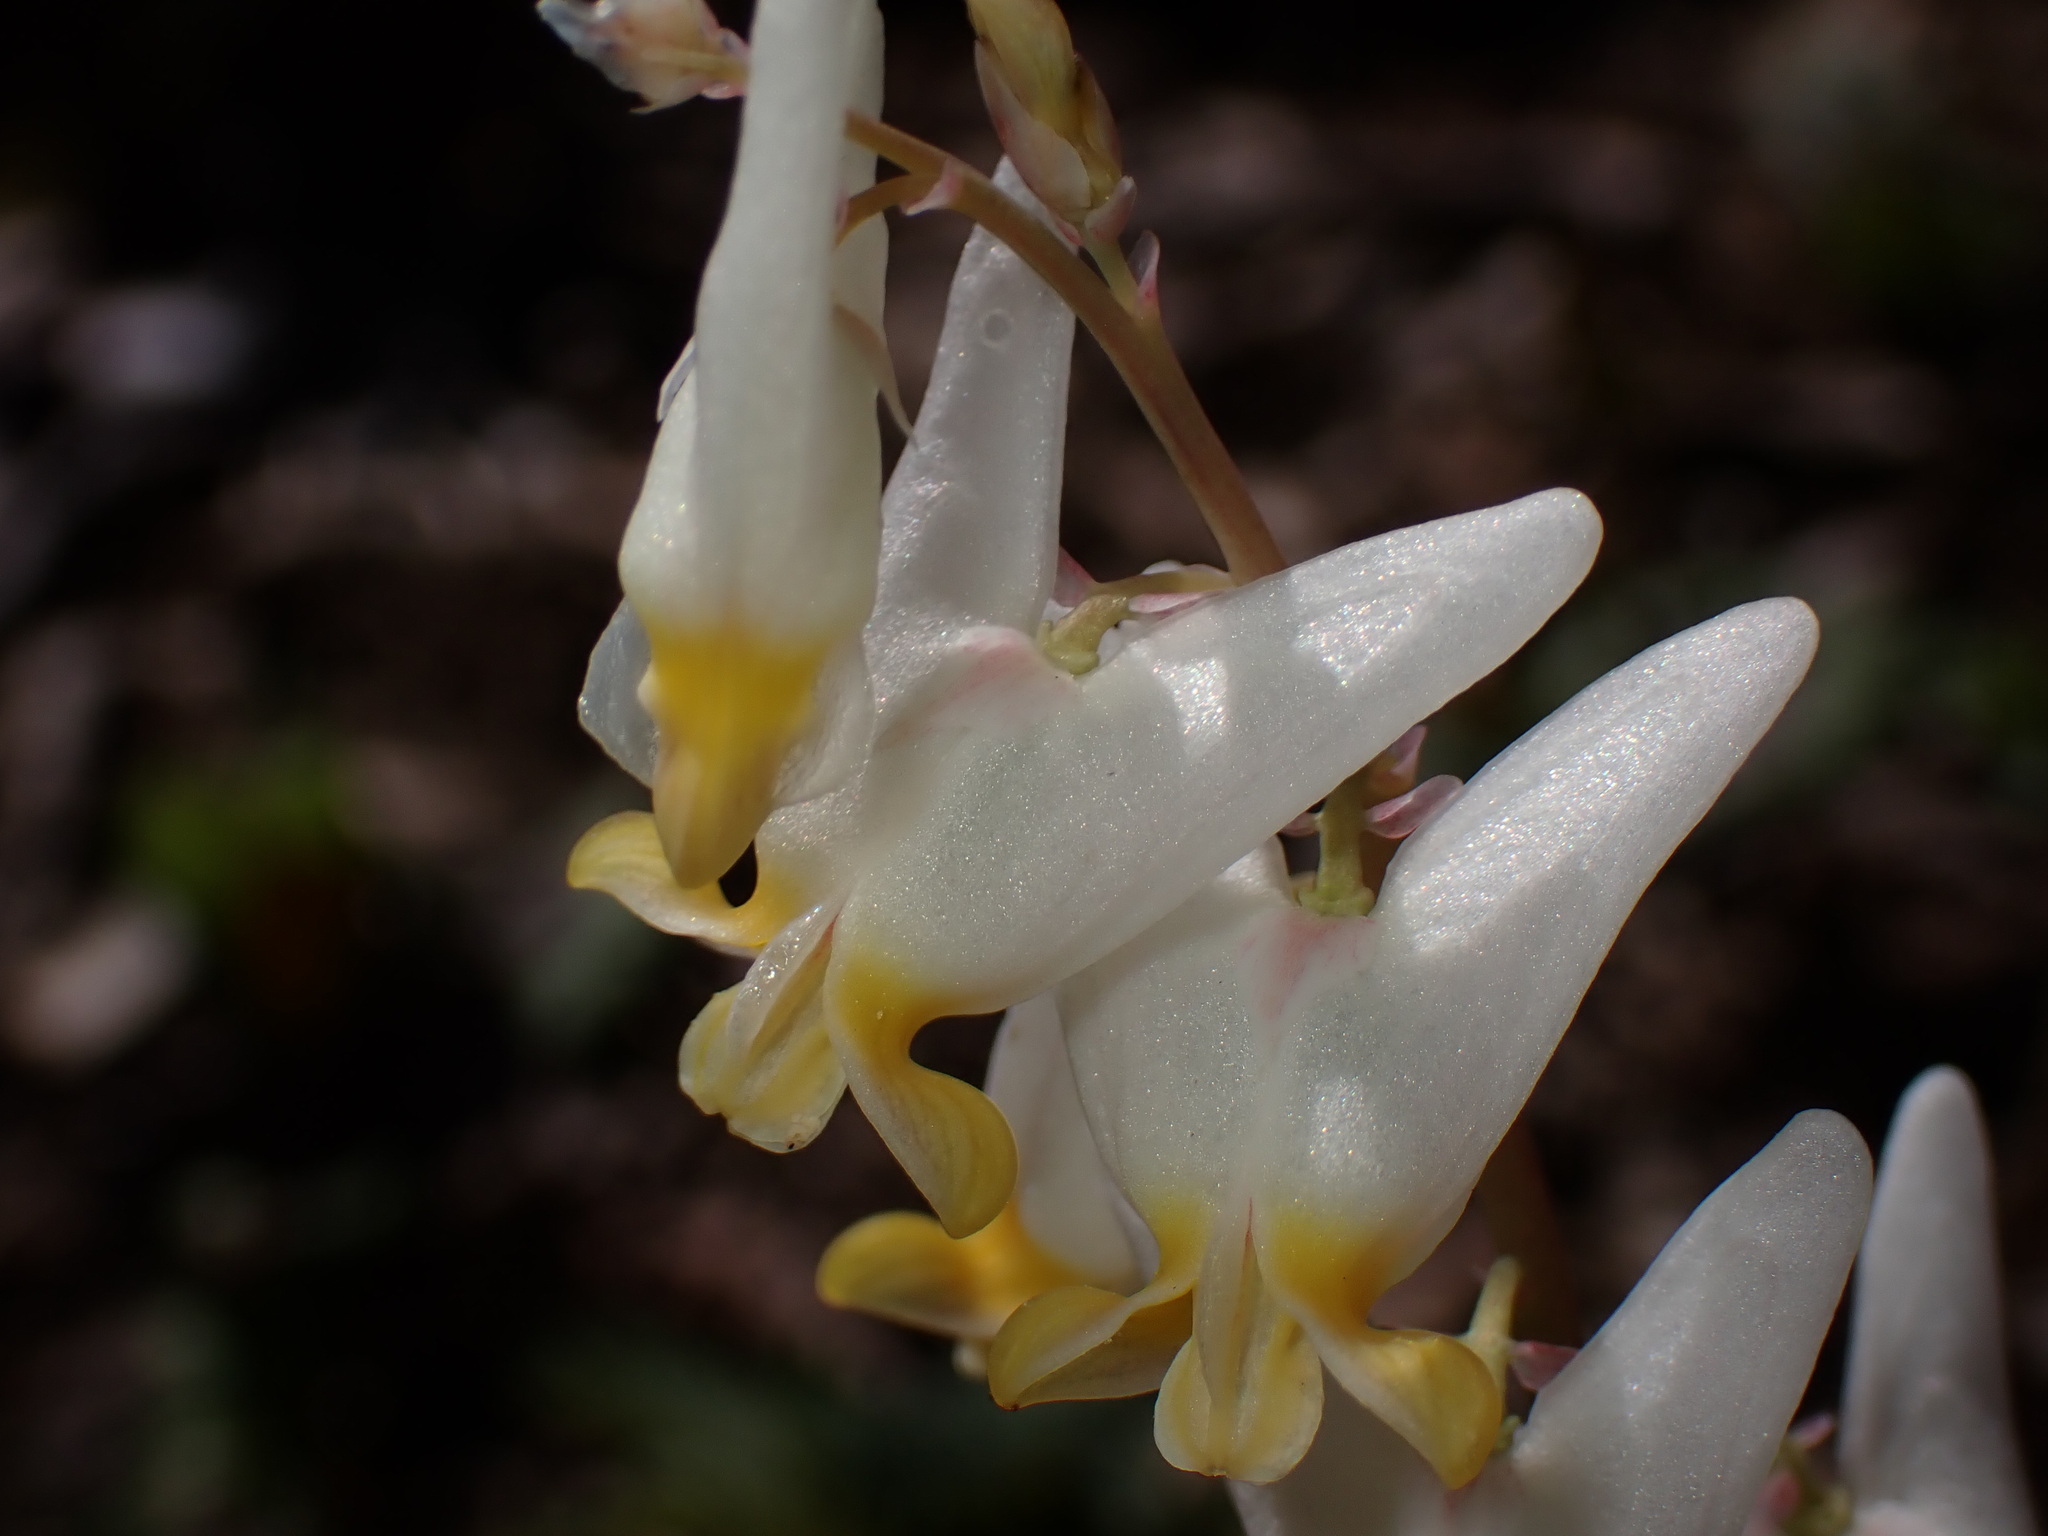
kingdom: Plantae
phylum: Tracheophyta
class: Magnoliopsida
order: Ranunculales
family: Papaveraceae
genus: Dicentra
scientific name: Dicentra cucullaria
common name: Dutchman's breeches
